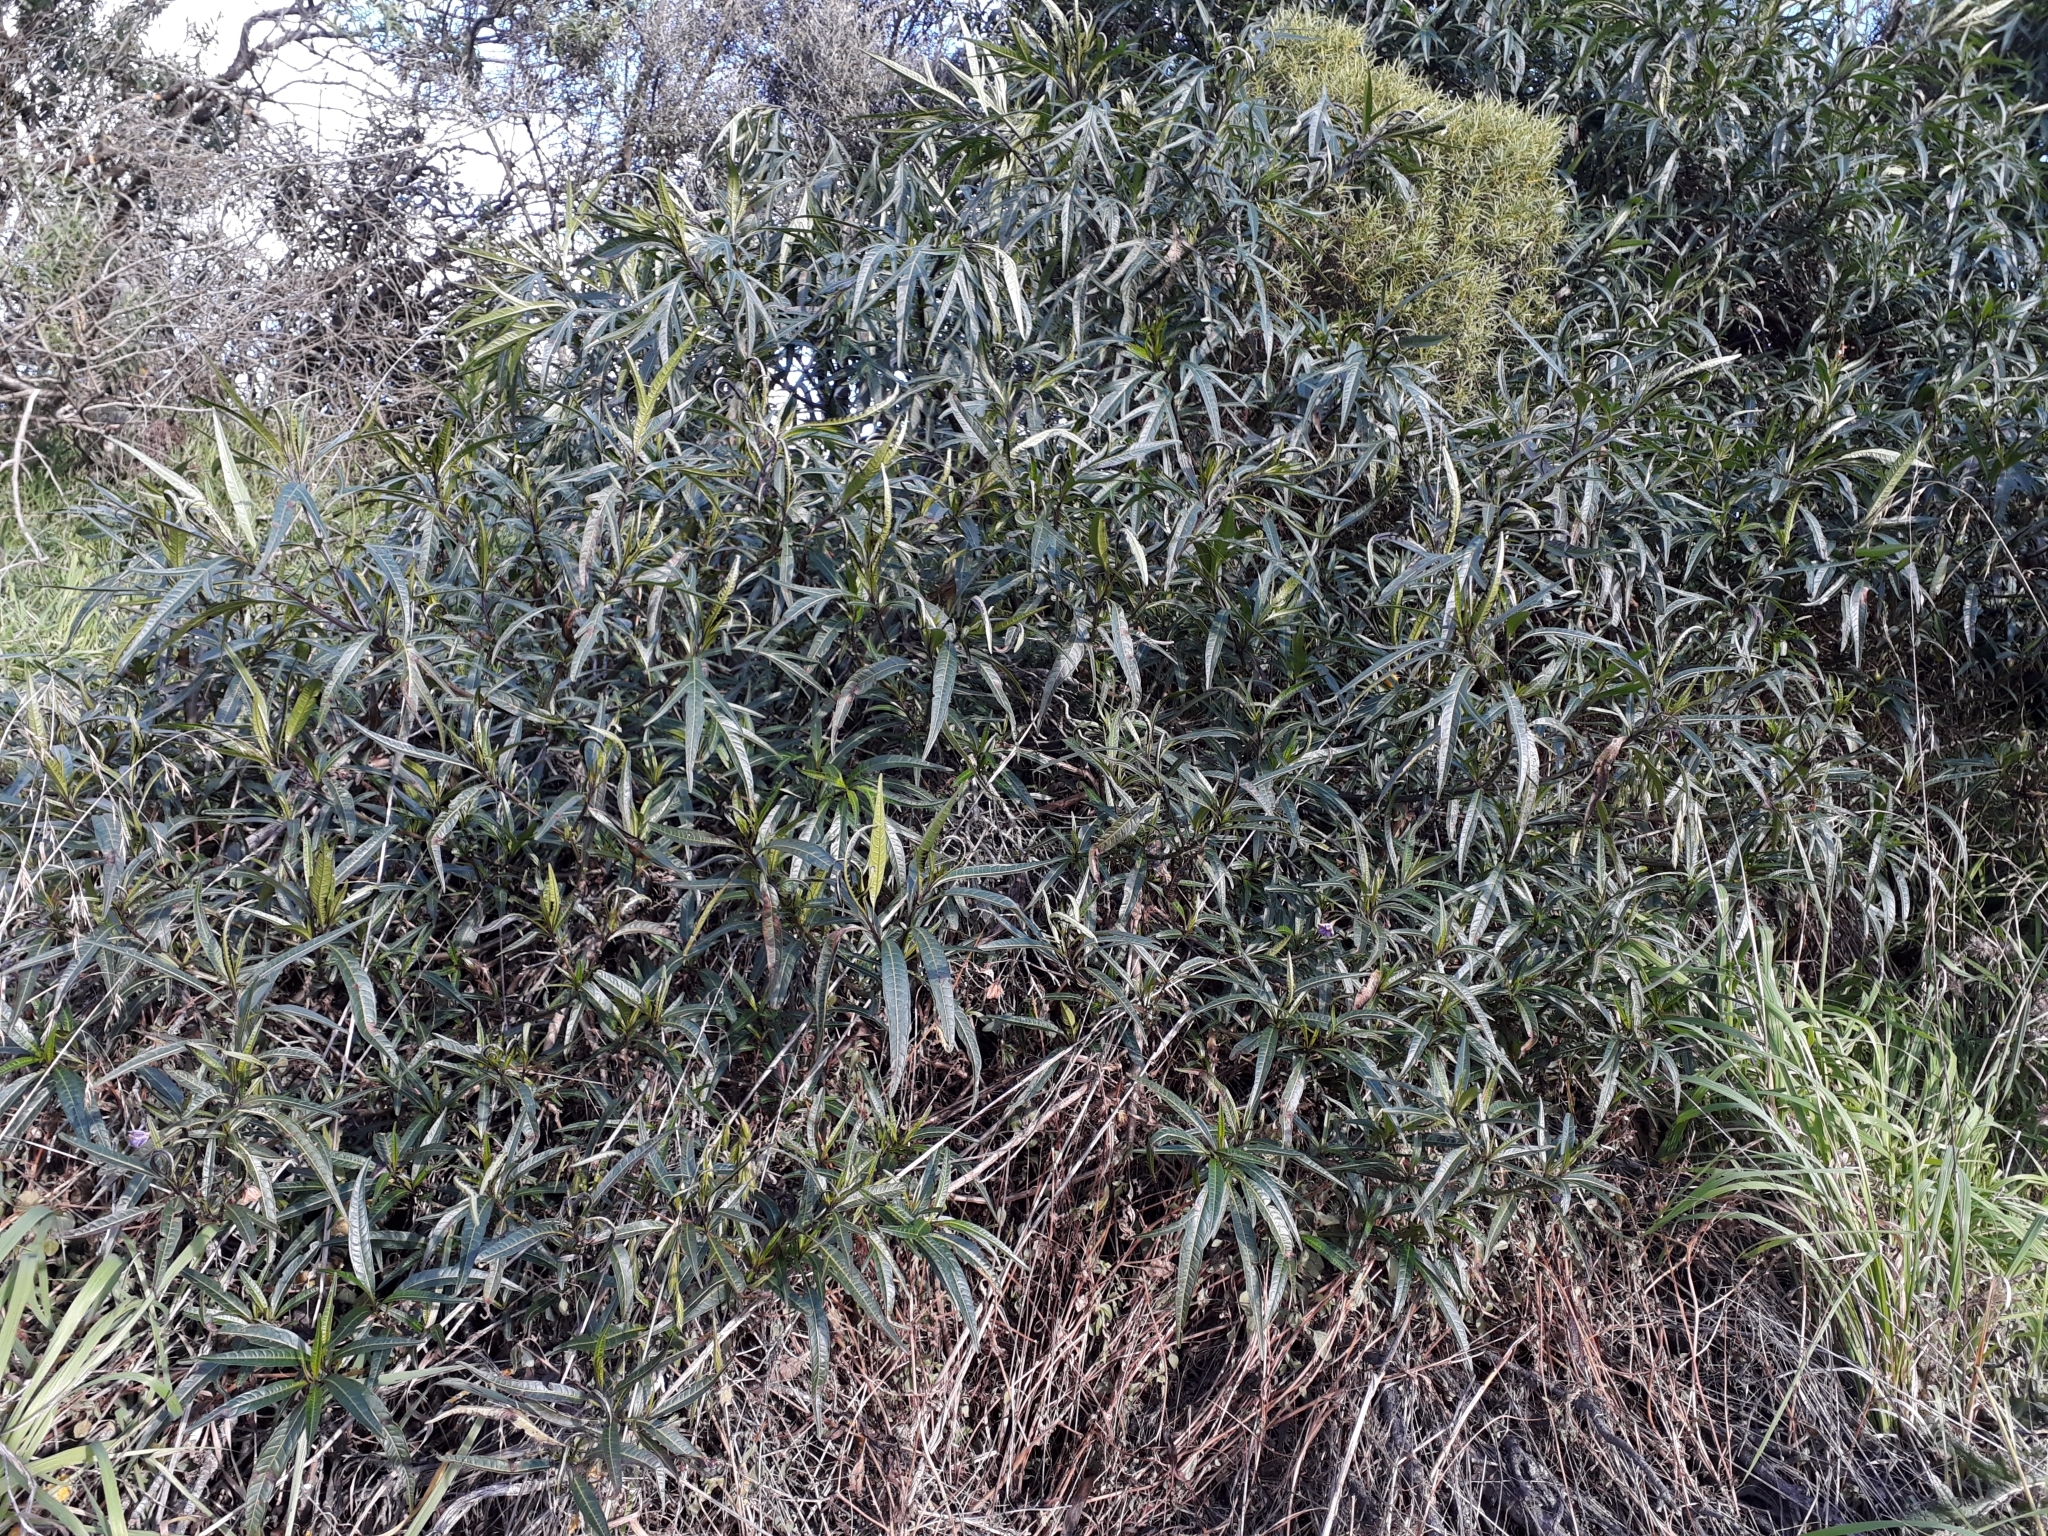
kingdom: Plantae
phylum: Tracheophyta
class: Magnoliopsida
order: Solanales
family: Solanaceae
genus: Solanum
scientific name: Solanum laciniatum
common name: Kangaroo-apple
